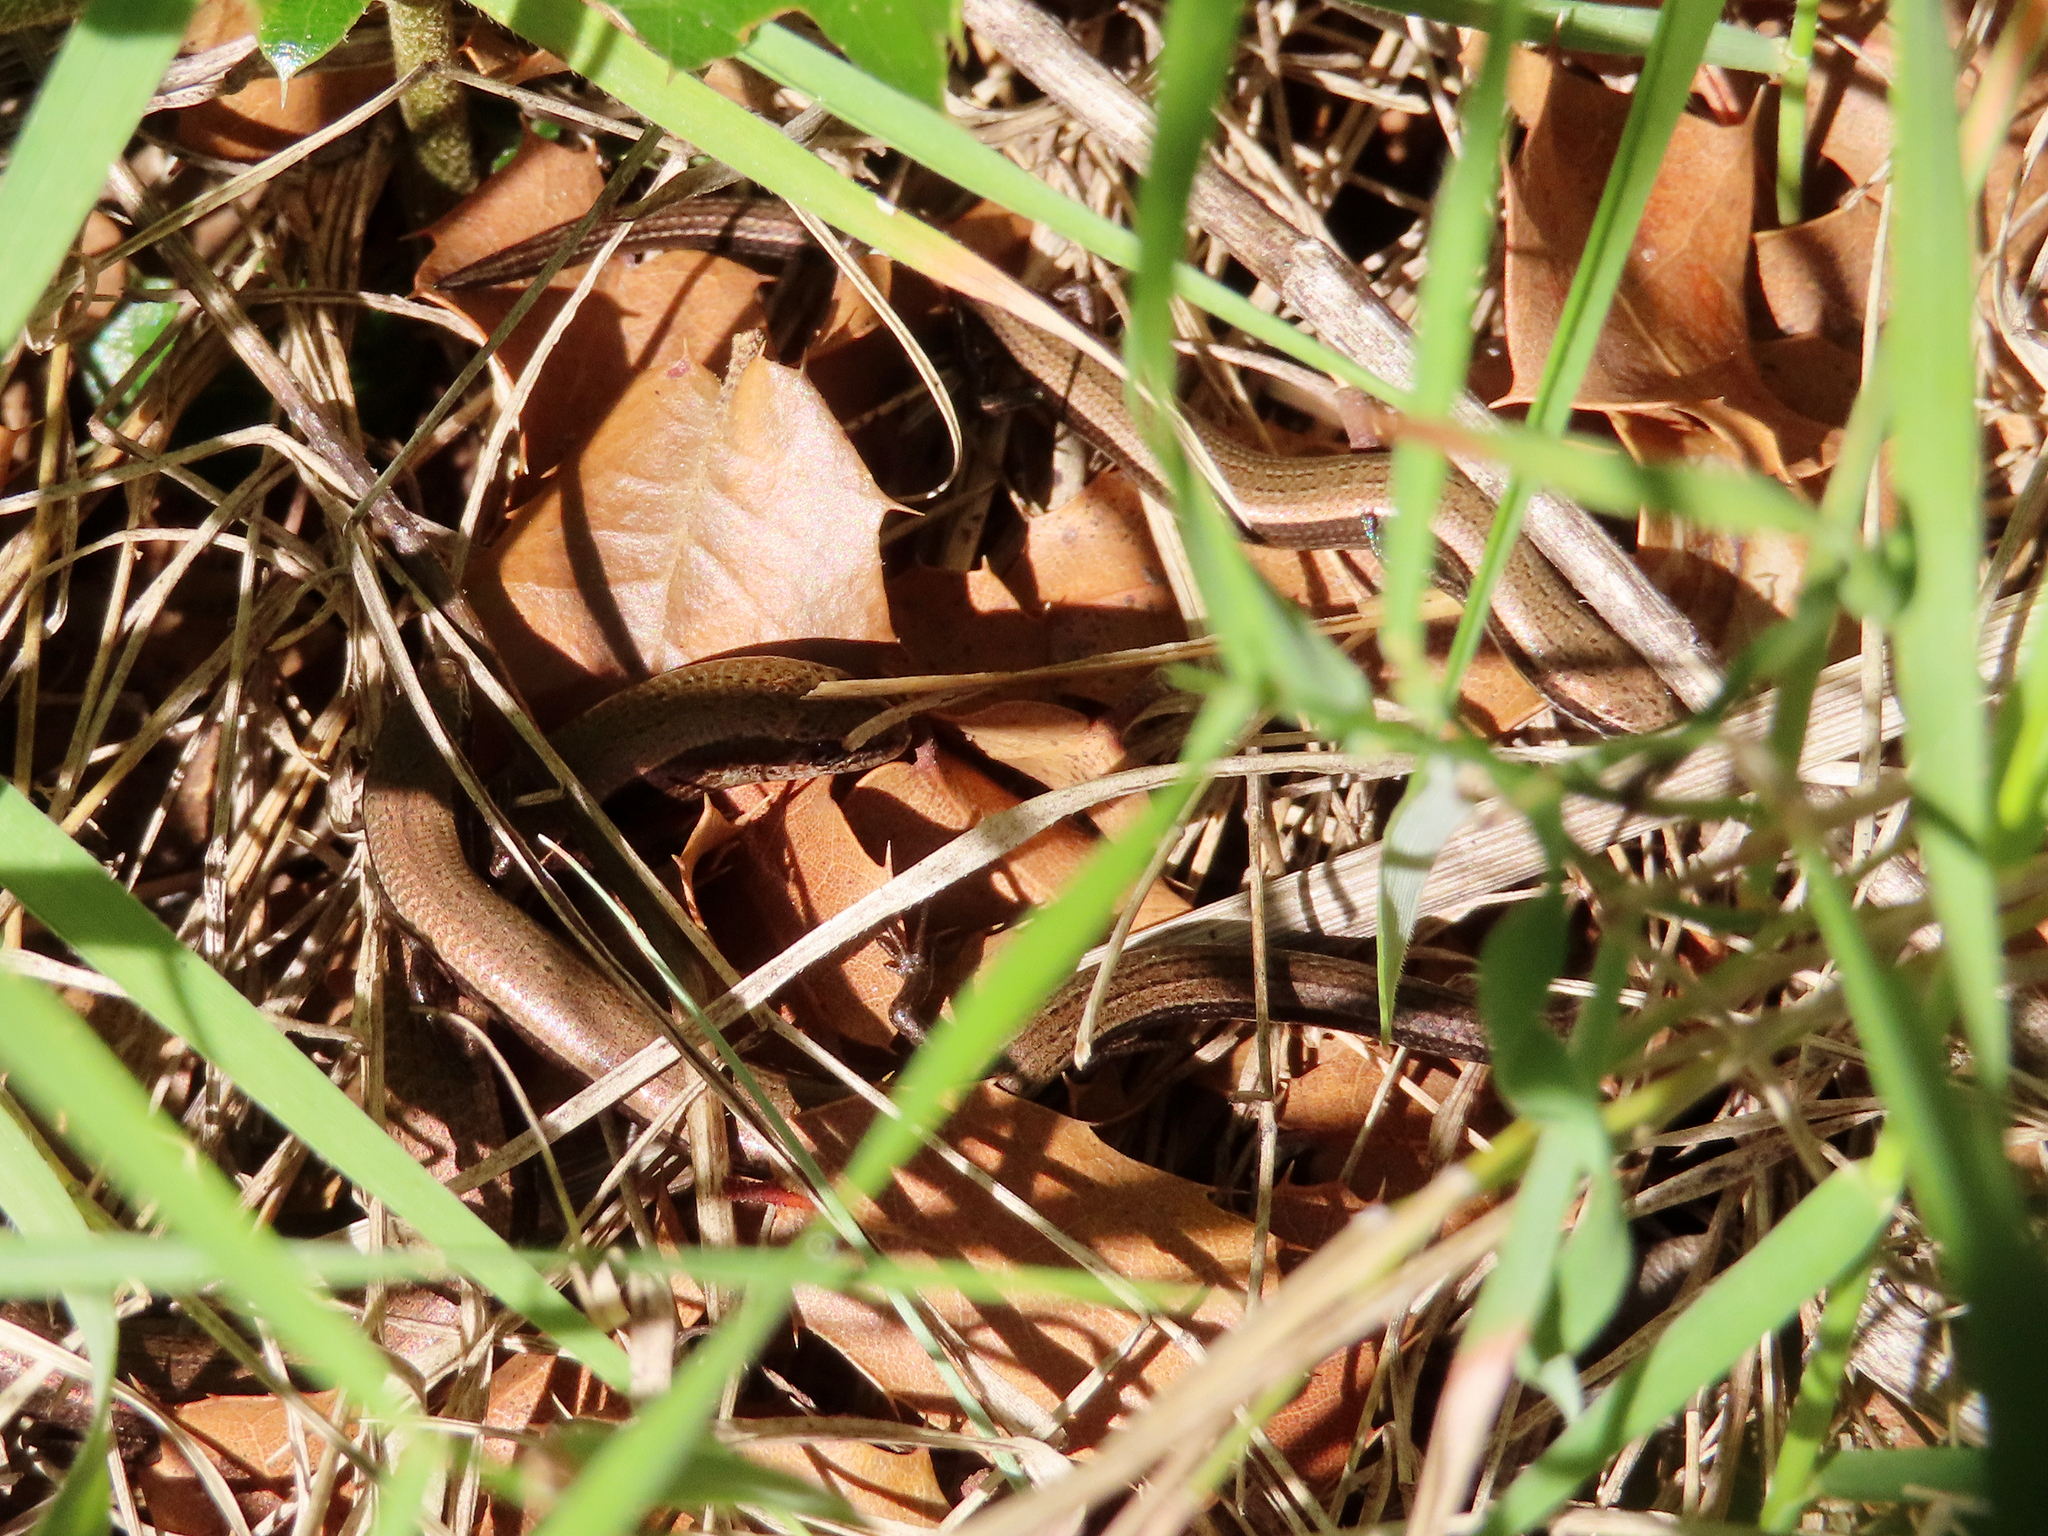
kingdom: Animalia
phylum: Chordata
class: Squamata
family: Scincidae
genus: Ablepharus
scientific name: Ablepharus kitaibelii
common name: Juniper skink
